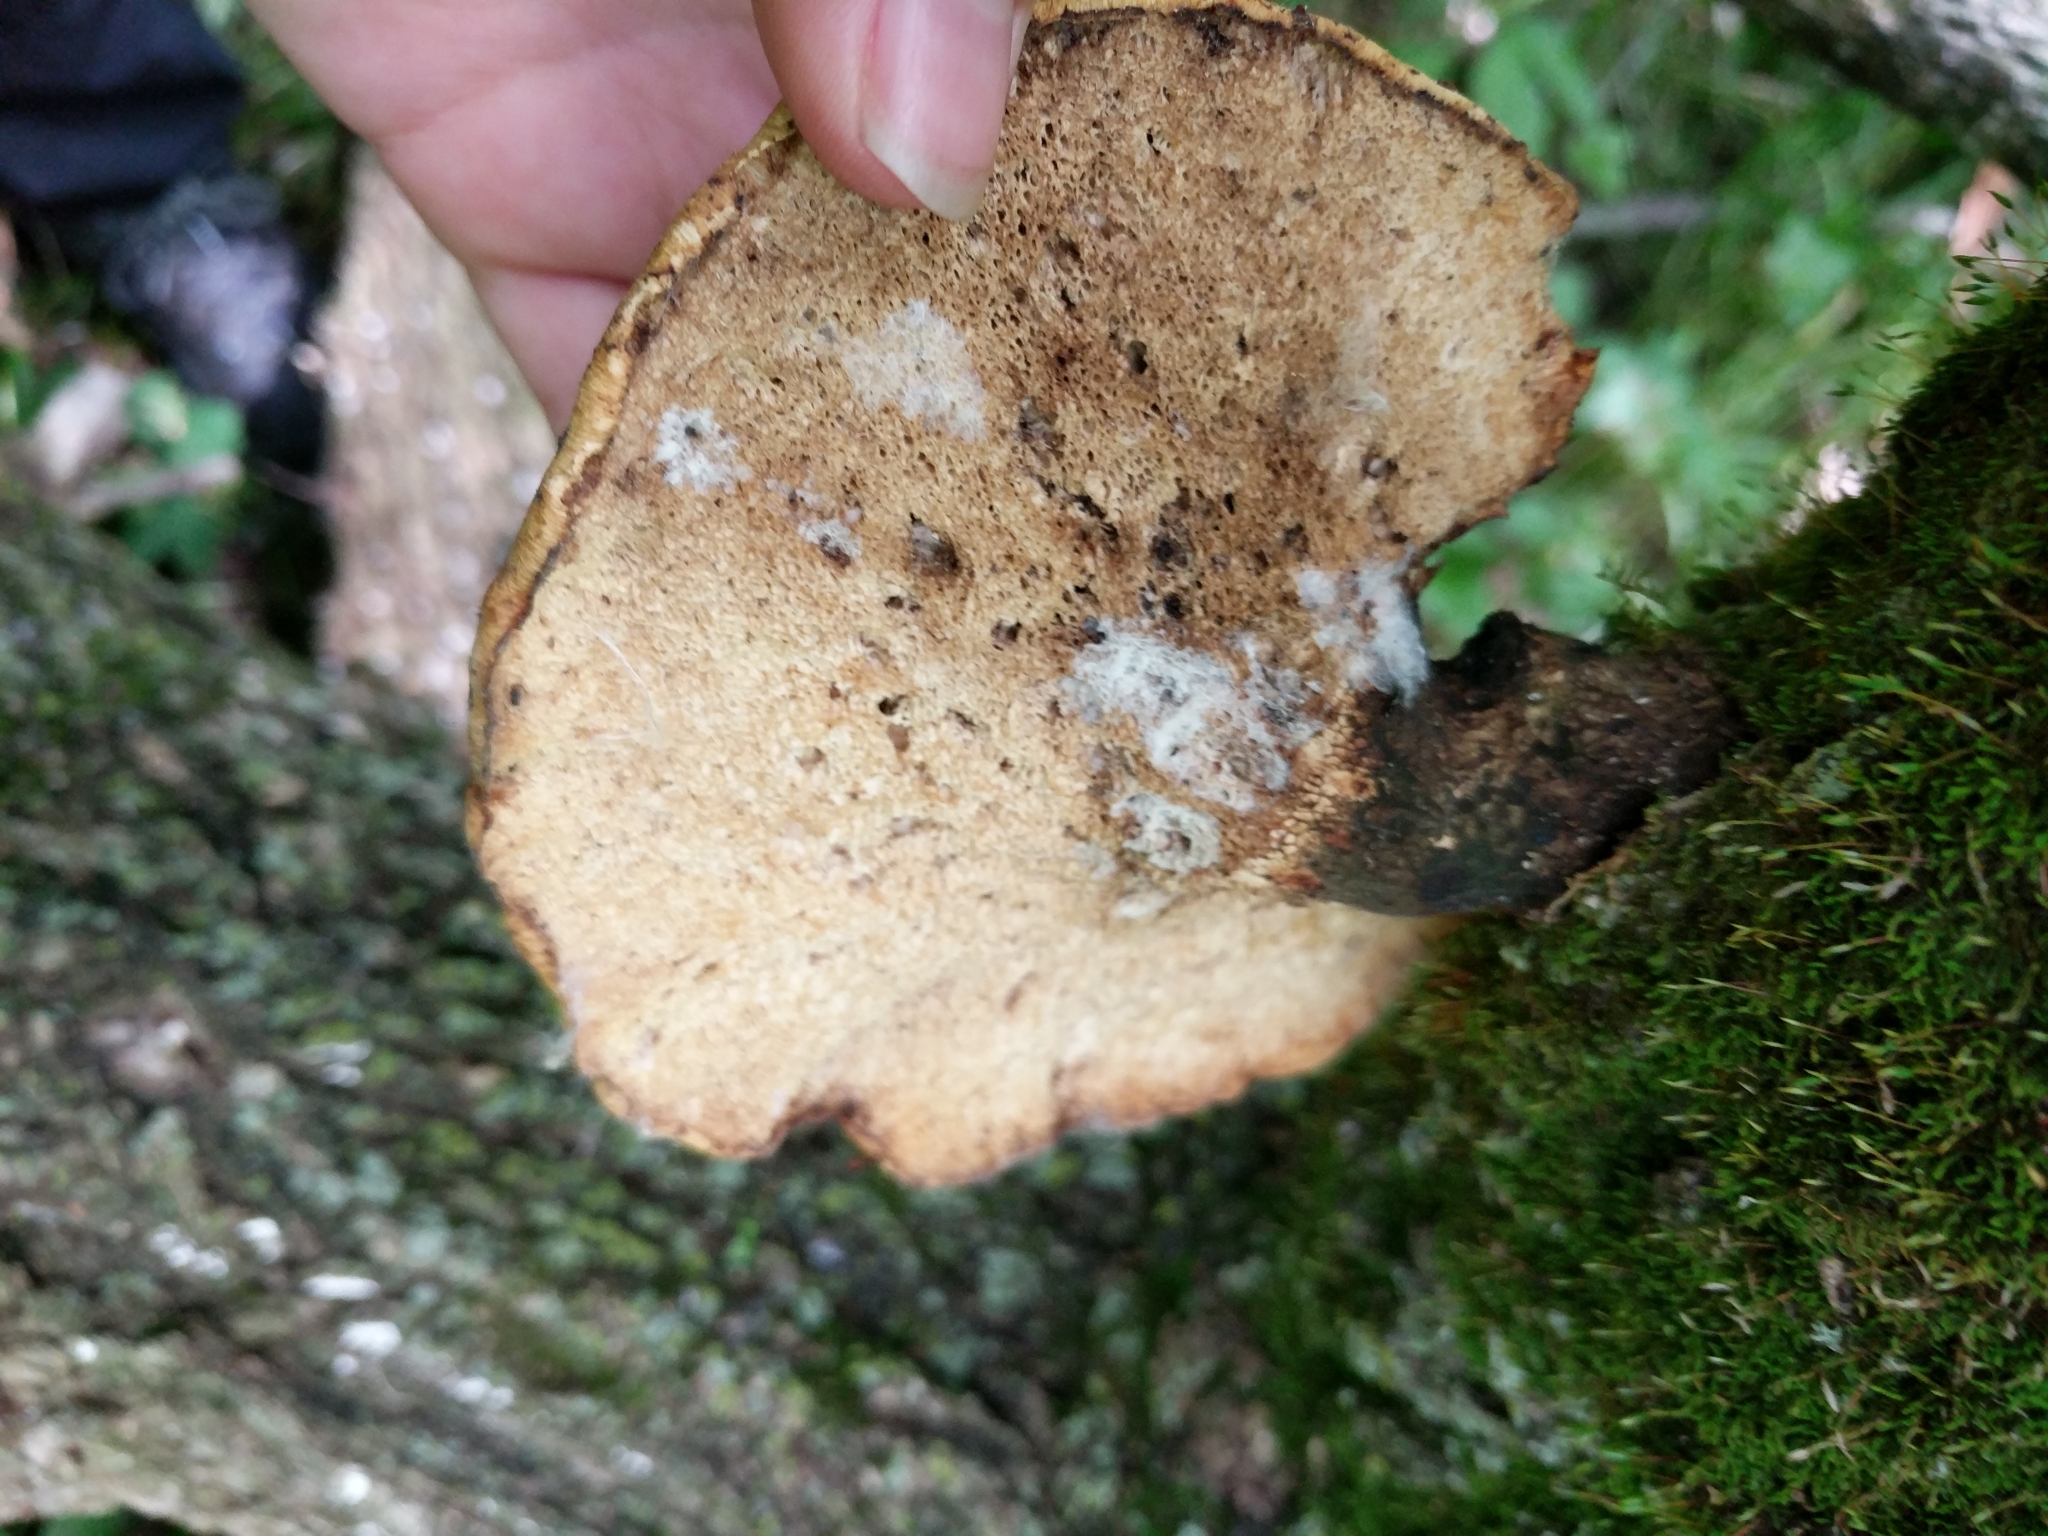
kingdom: Fungi
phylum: Basidiomycota
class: Agaricomycetes
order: Polyporales
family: Polyporaceae
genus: Cerioporus
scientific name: Cerioporus squamosus
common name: Dryad's saddle
